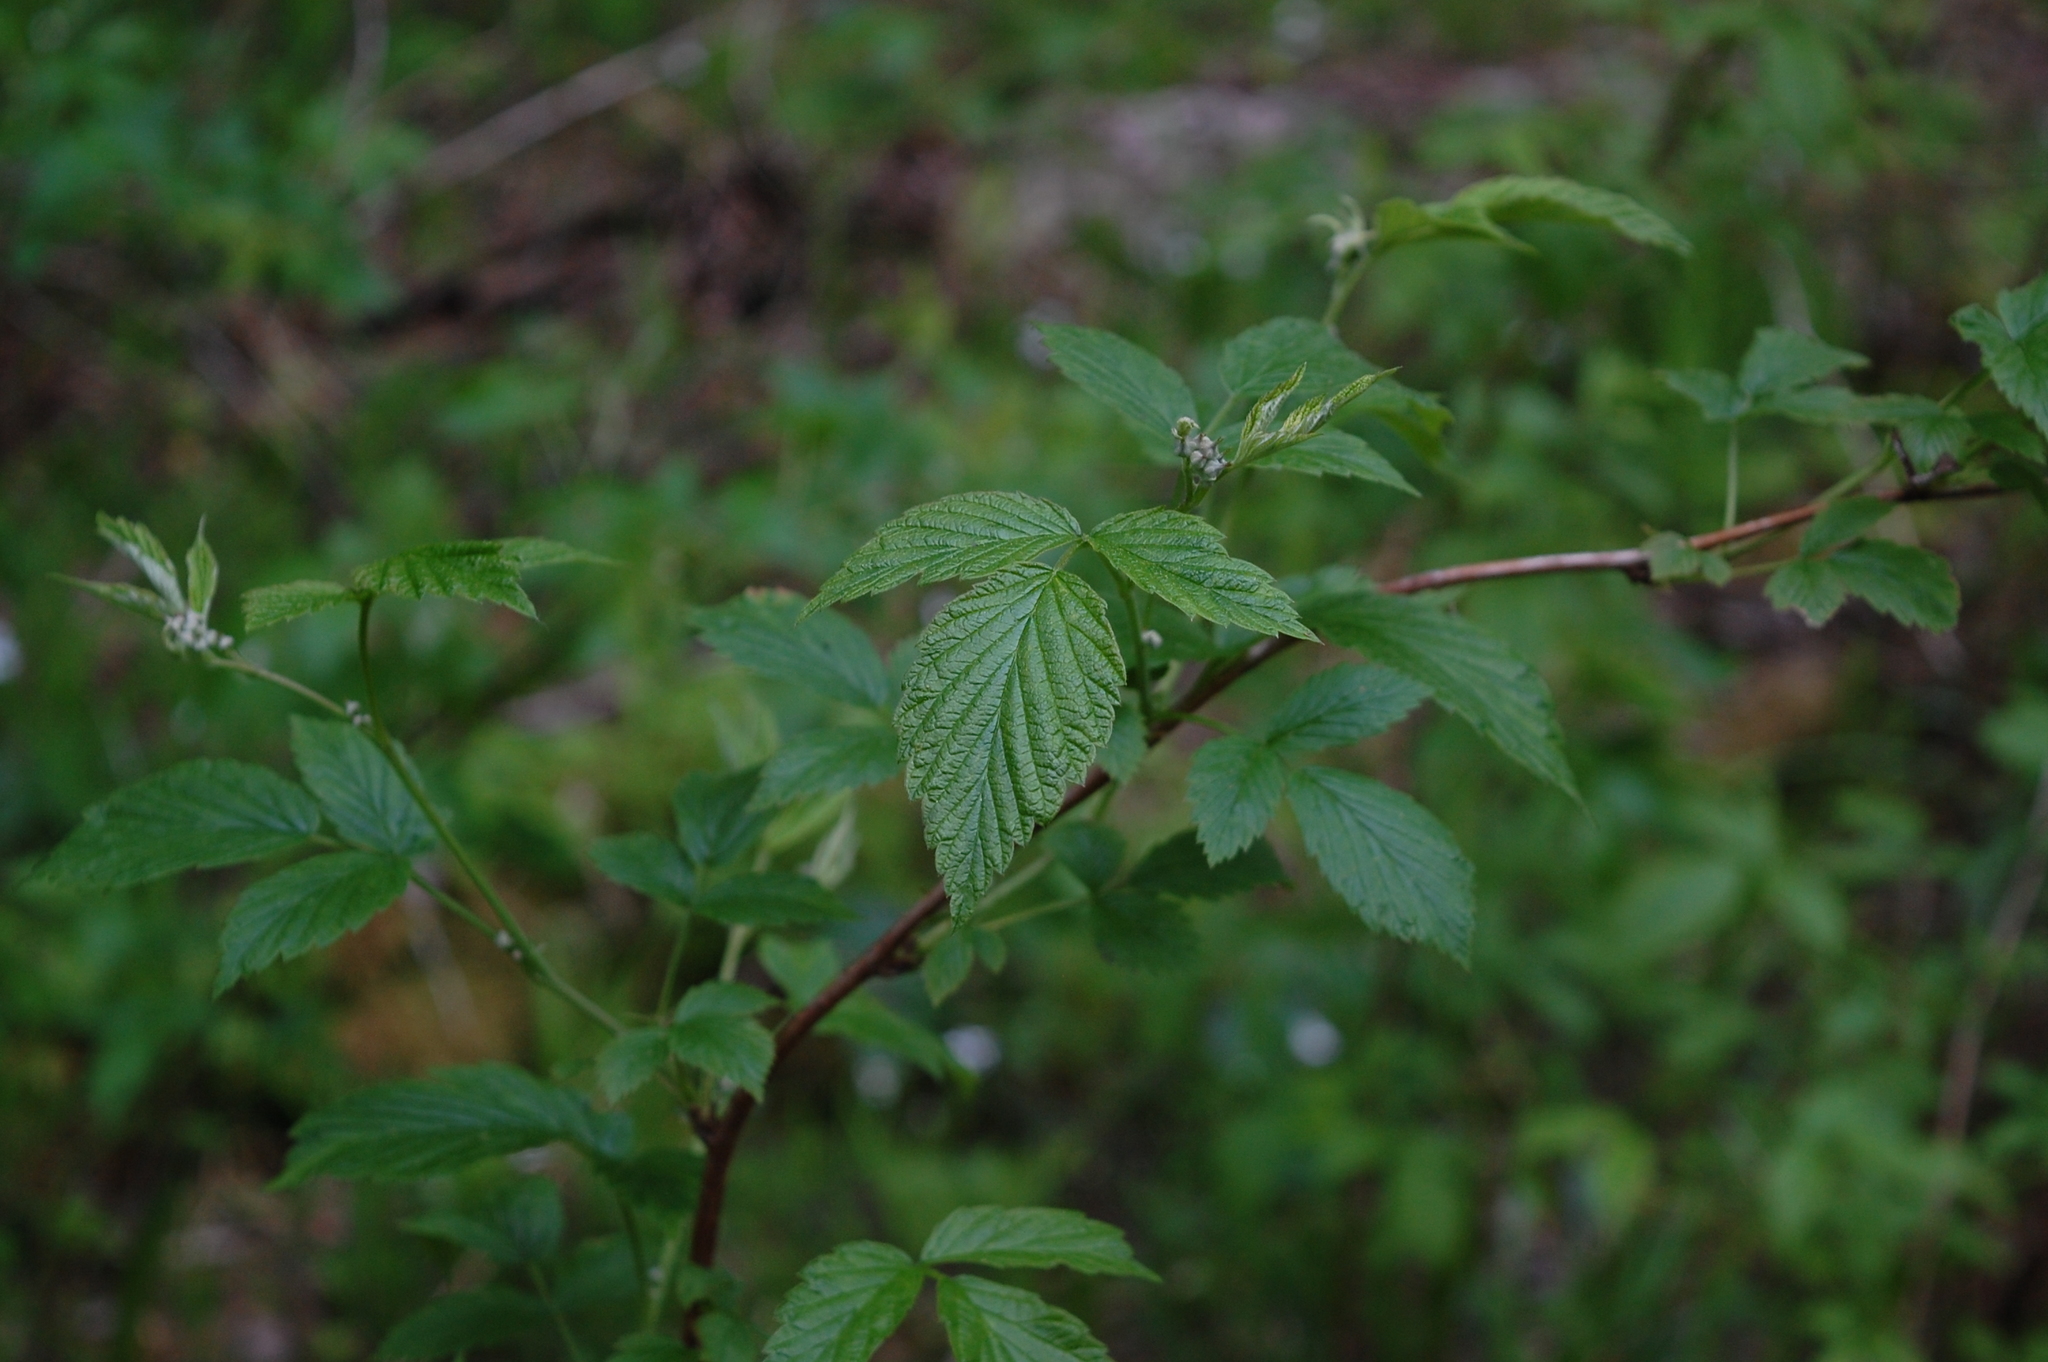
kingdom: Plantae
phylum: Tracheophyta
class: Magnoliopsida
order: Rosales
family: Rosaceae
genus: Rubus
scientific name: Rubus idaeus
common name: Raspberry
